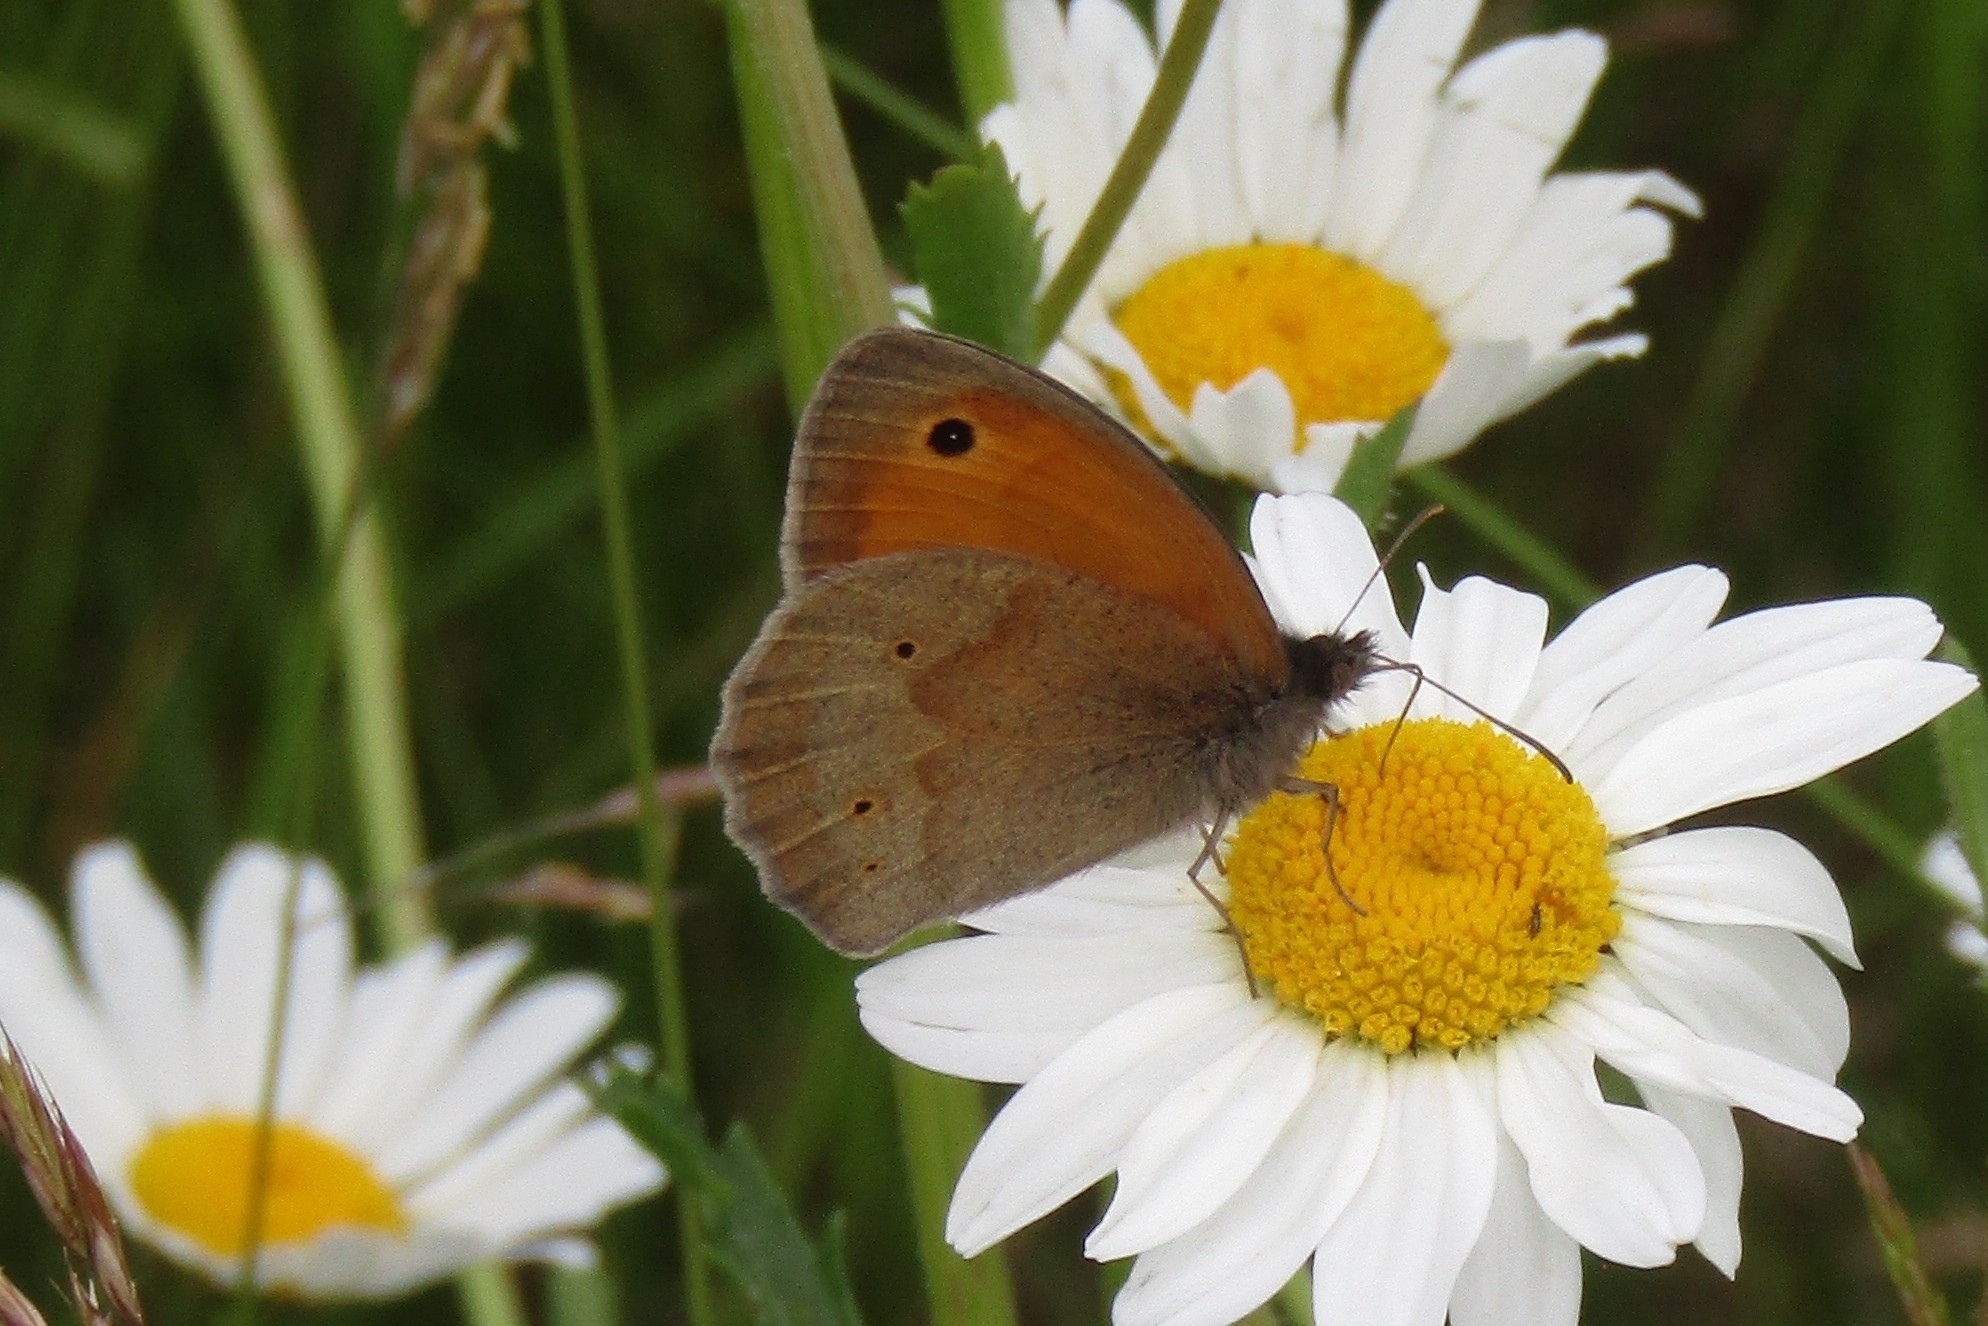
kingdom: Animalia
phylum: Arthropoda
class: Insecta
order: Lepidoptera
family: Nymphalidae
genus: Maniola
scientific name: Maniola jurtina
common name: Meadow brown
